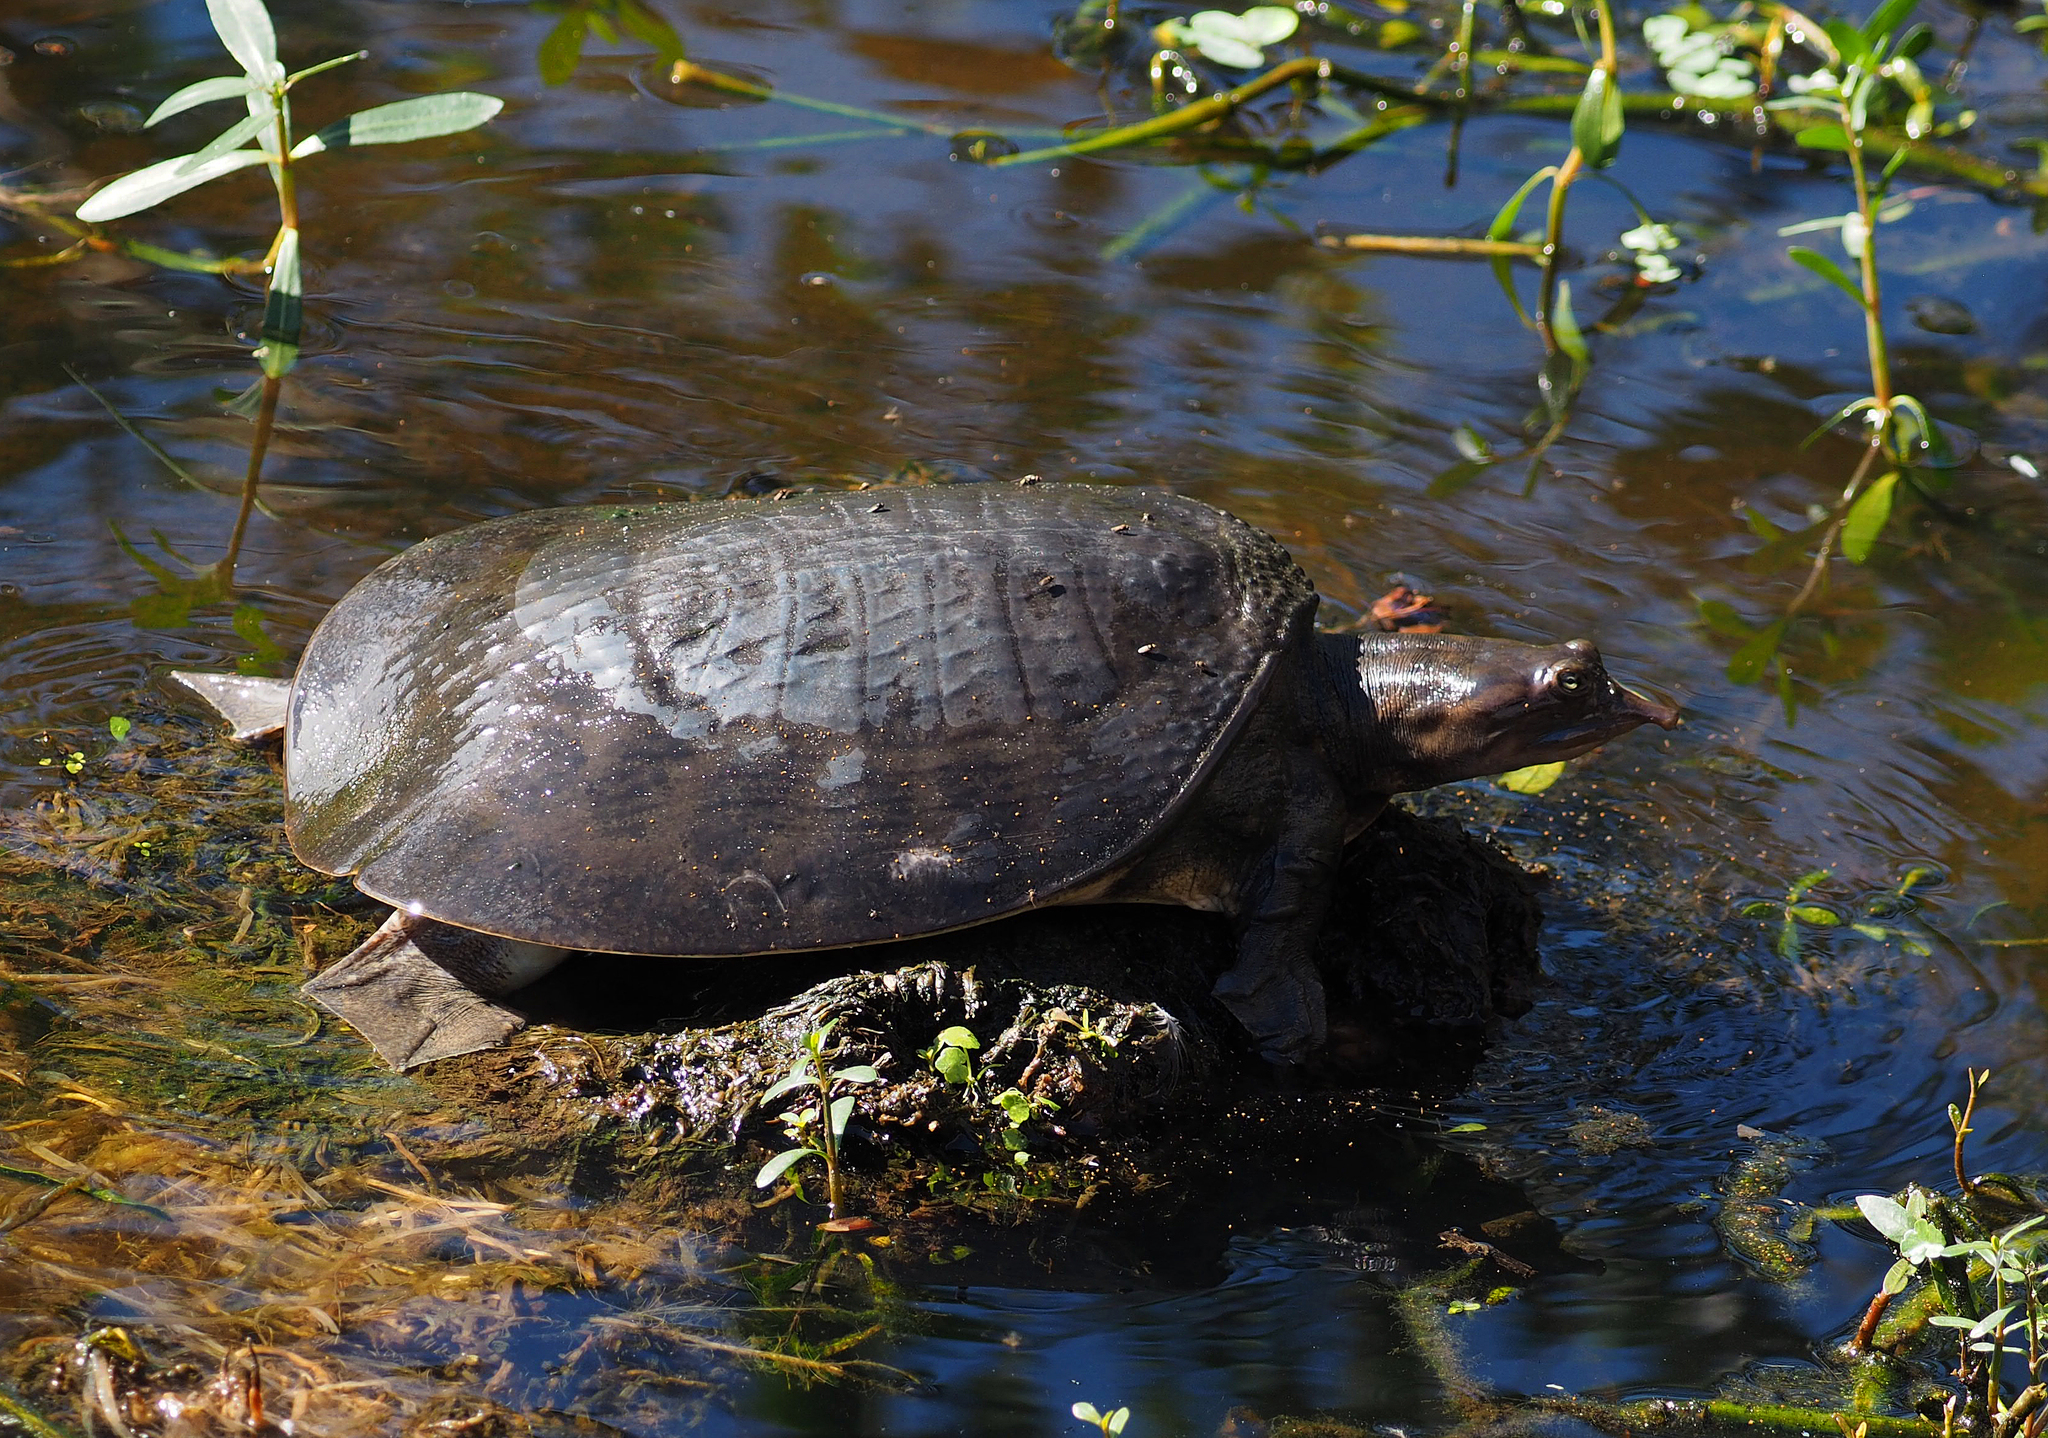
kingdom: Animalia
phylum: Chordata
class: Testudines
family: Trionychidae
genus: Apalone
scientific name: Apalone ferox
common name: Florida softshell turtle
